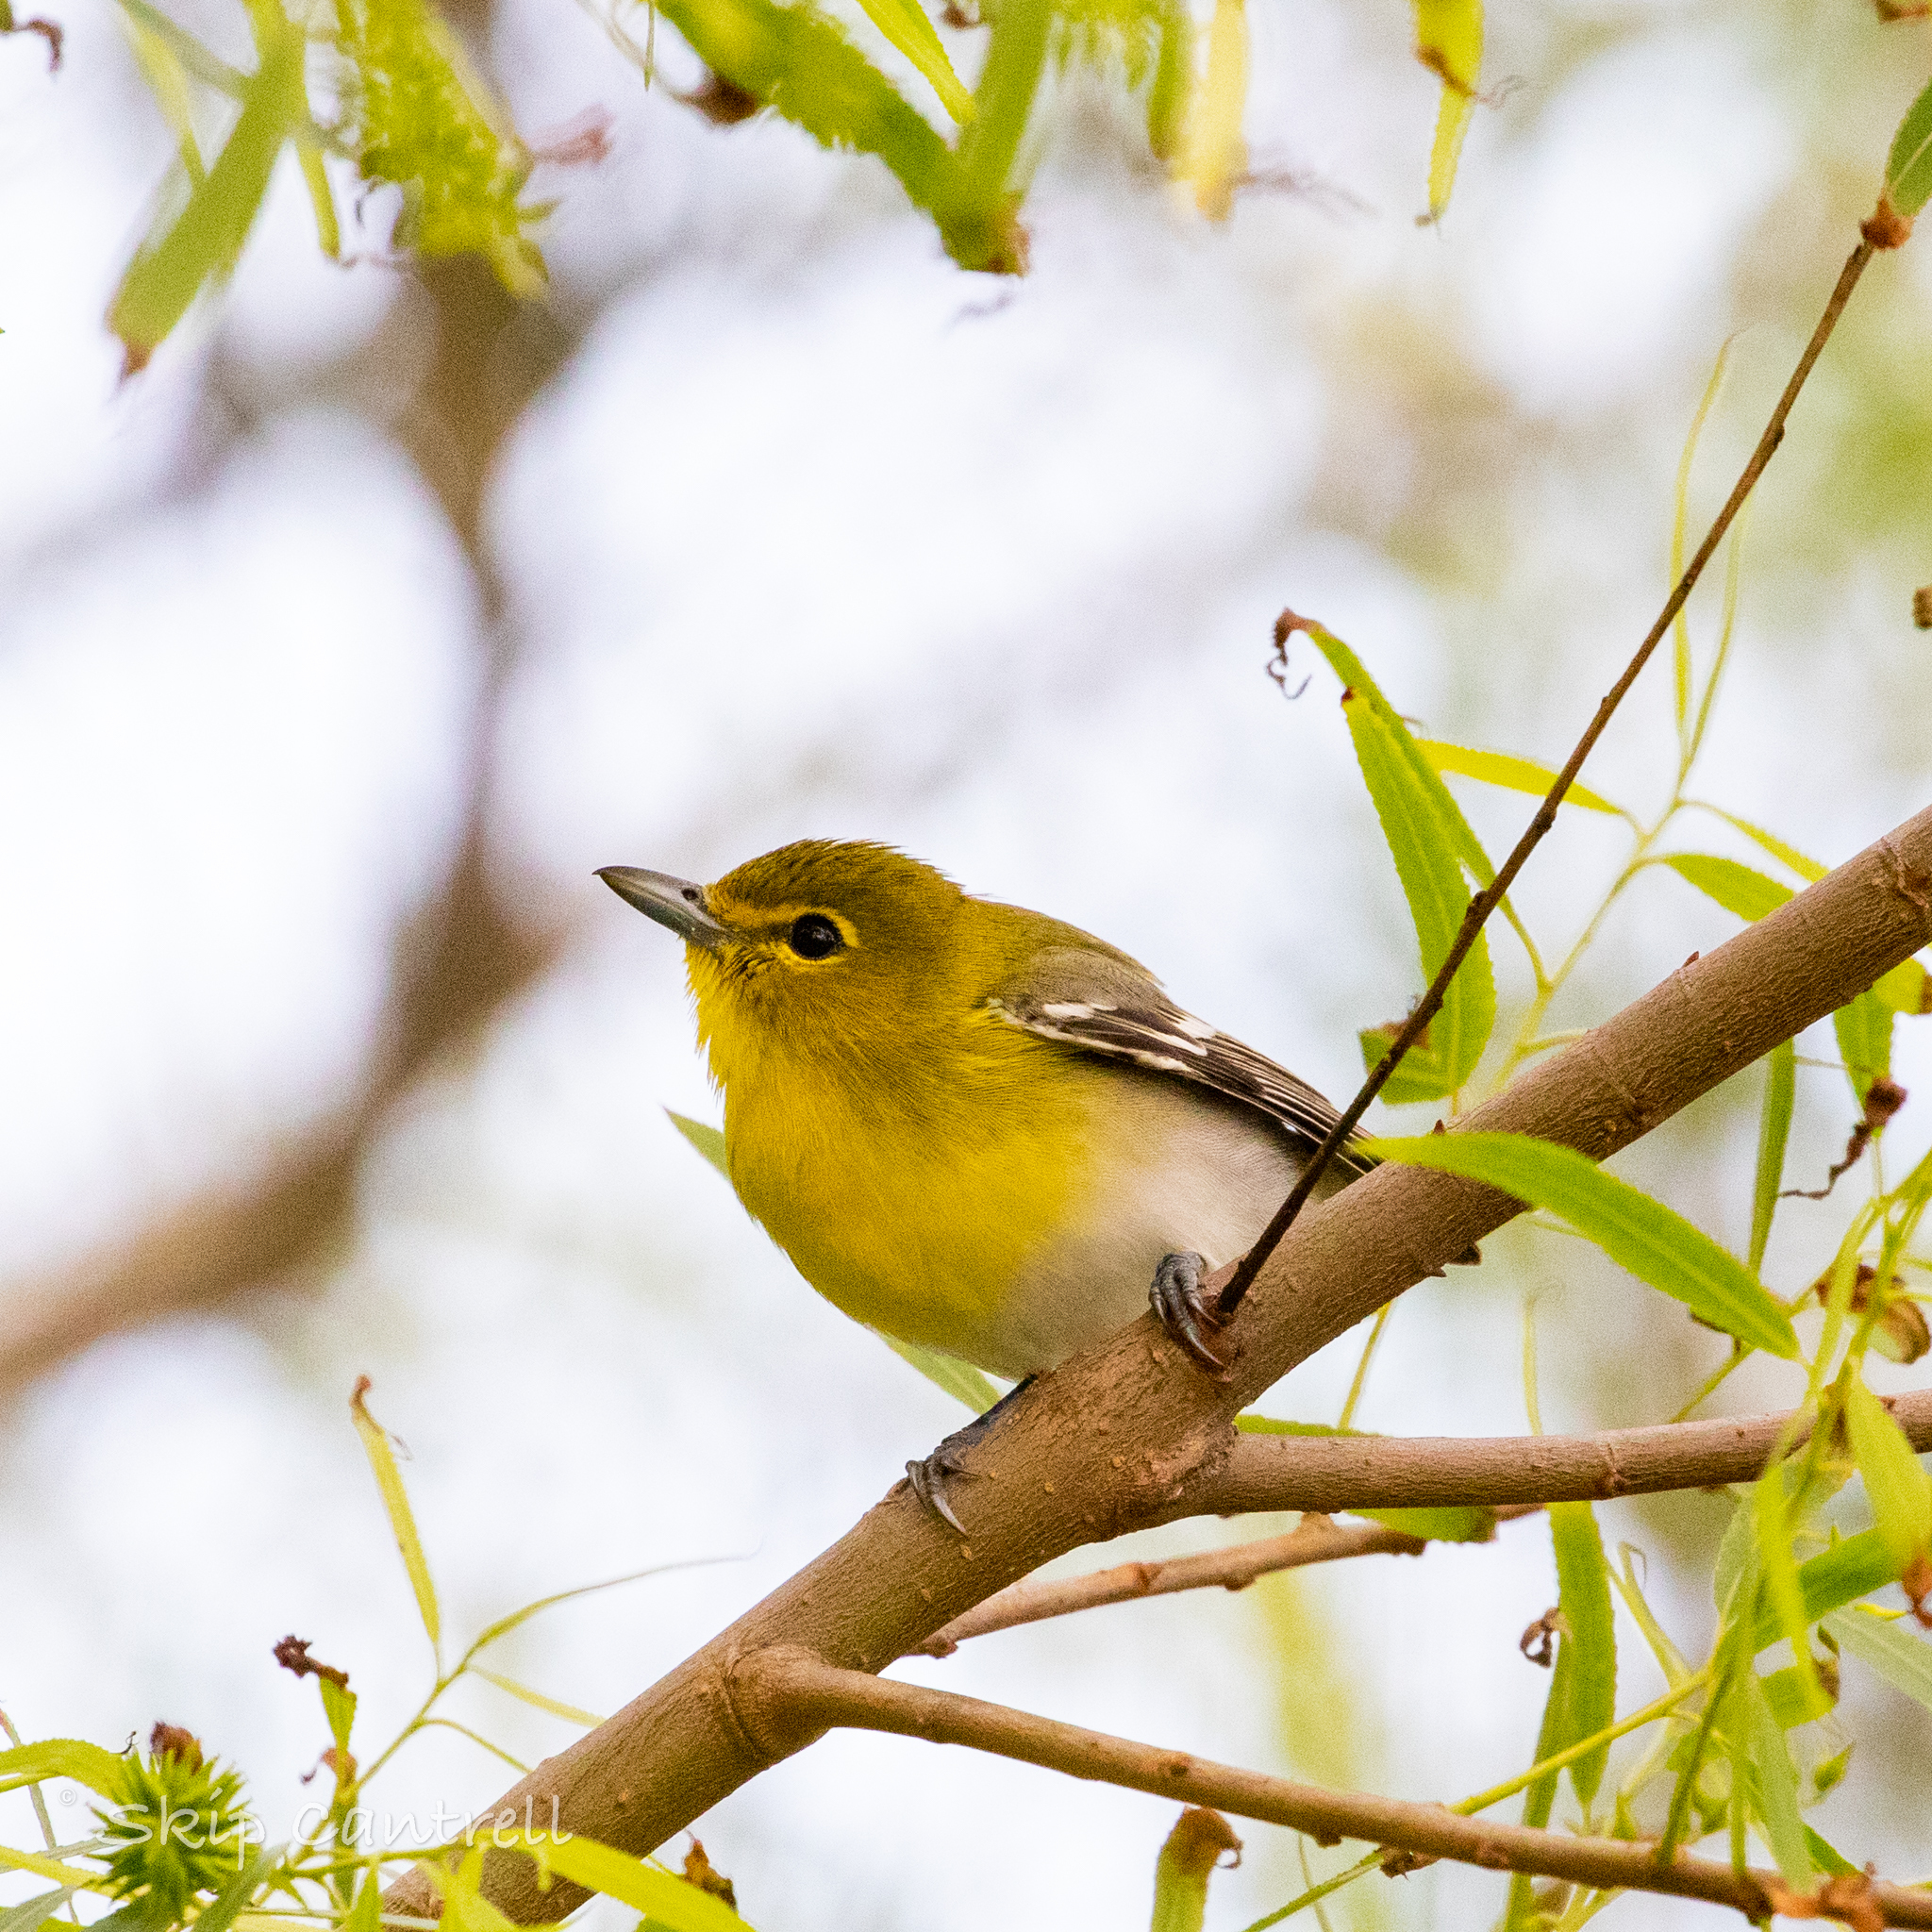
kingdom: Animalia
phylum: Chordata
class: Aves
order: Passeriformes
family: Vireonidae
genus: Vireo
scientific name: Vireo flavifrons
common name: Yellow-throated vireo
